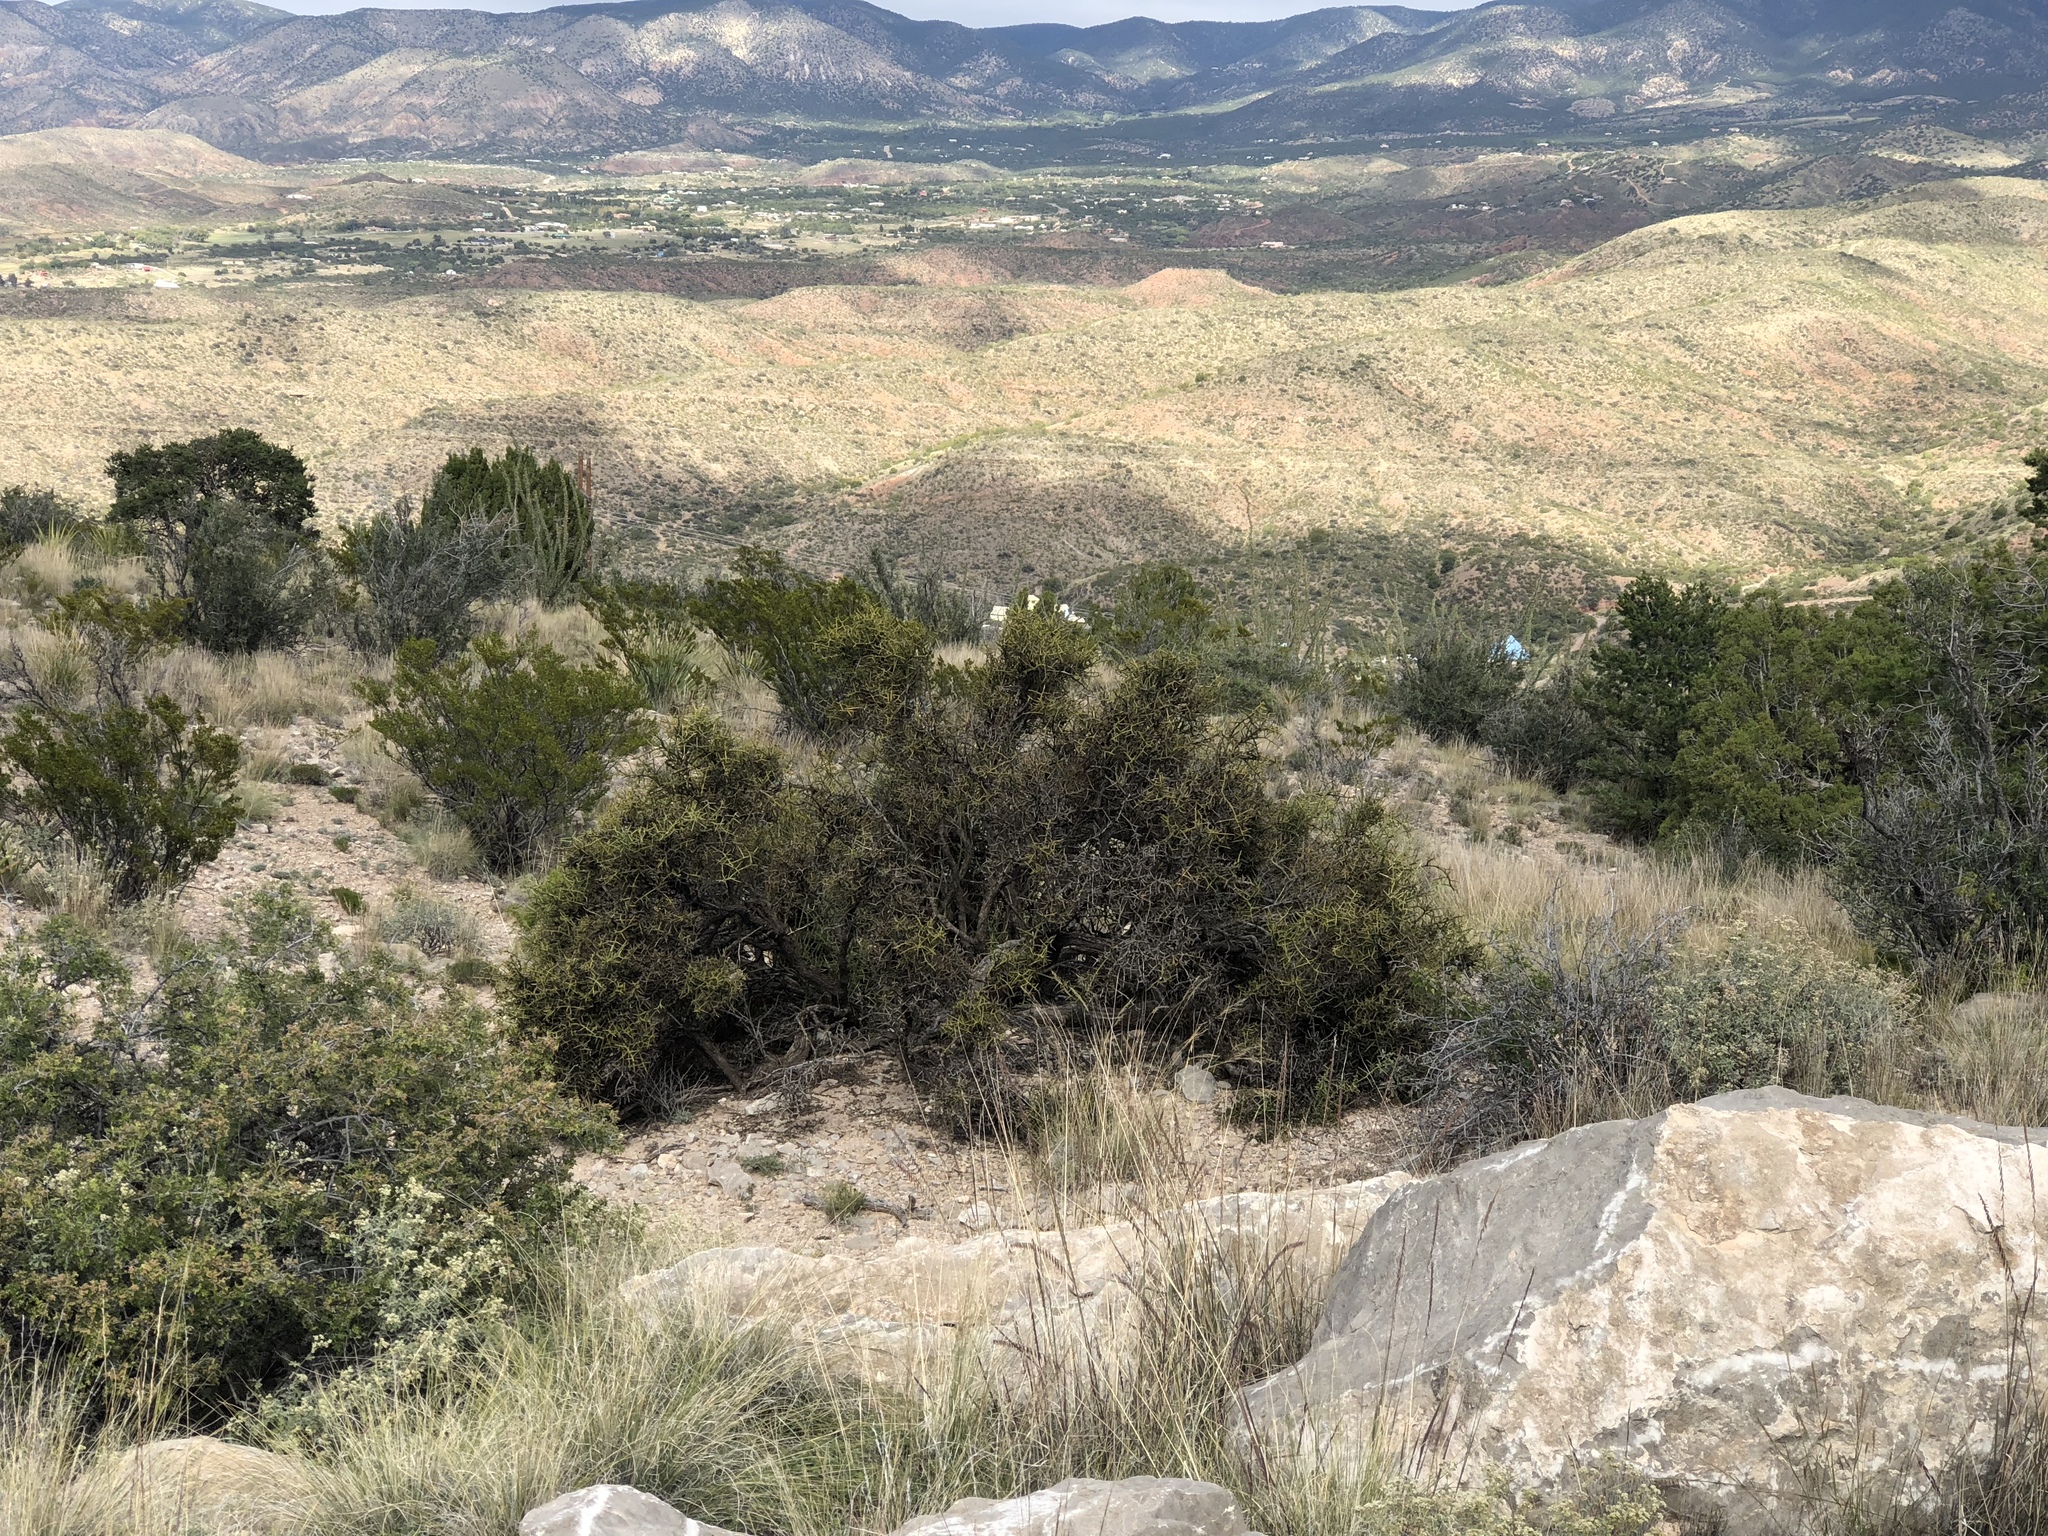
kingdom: Plantae
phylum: Tracheophyta
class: Magnoliopsida
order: Brassicales
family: Koeberliniaceae
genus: Koeberlinia
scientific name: Koeberlinia spinosa
